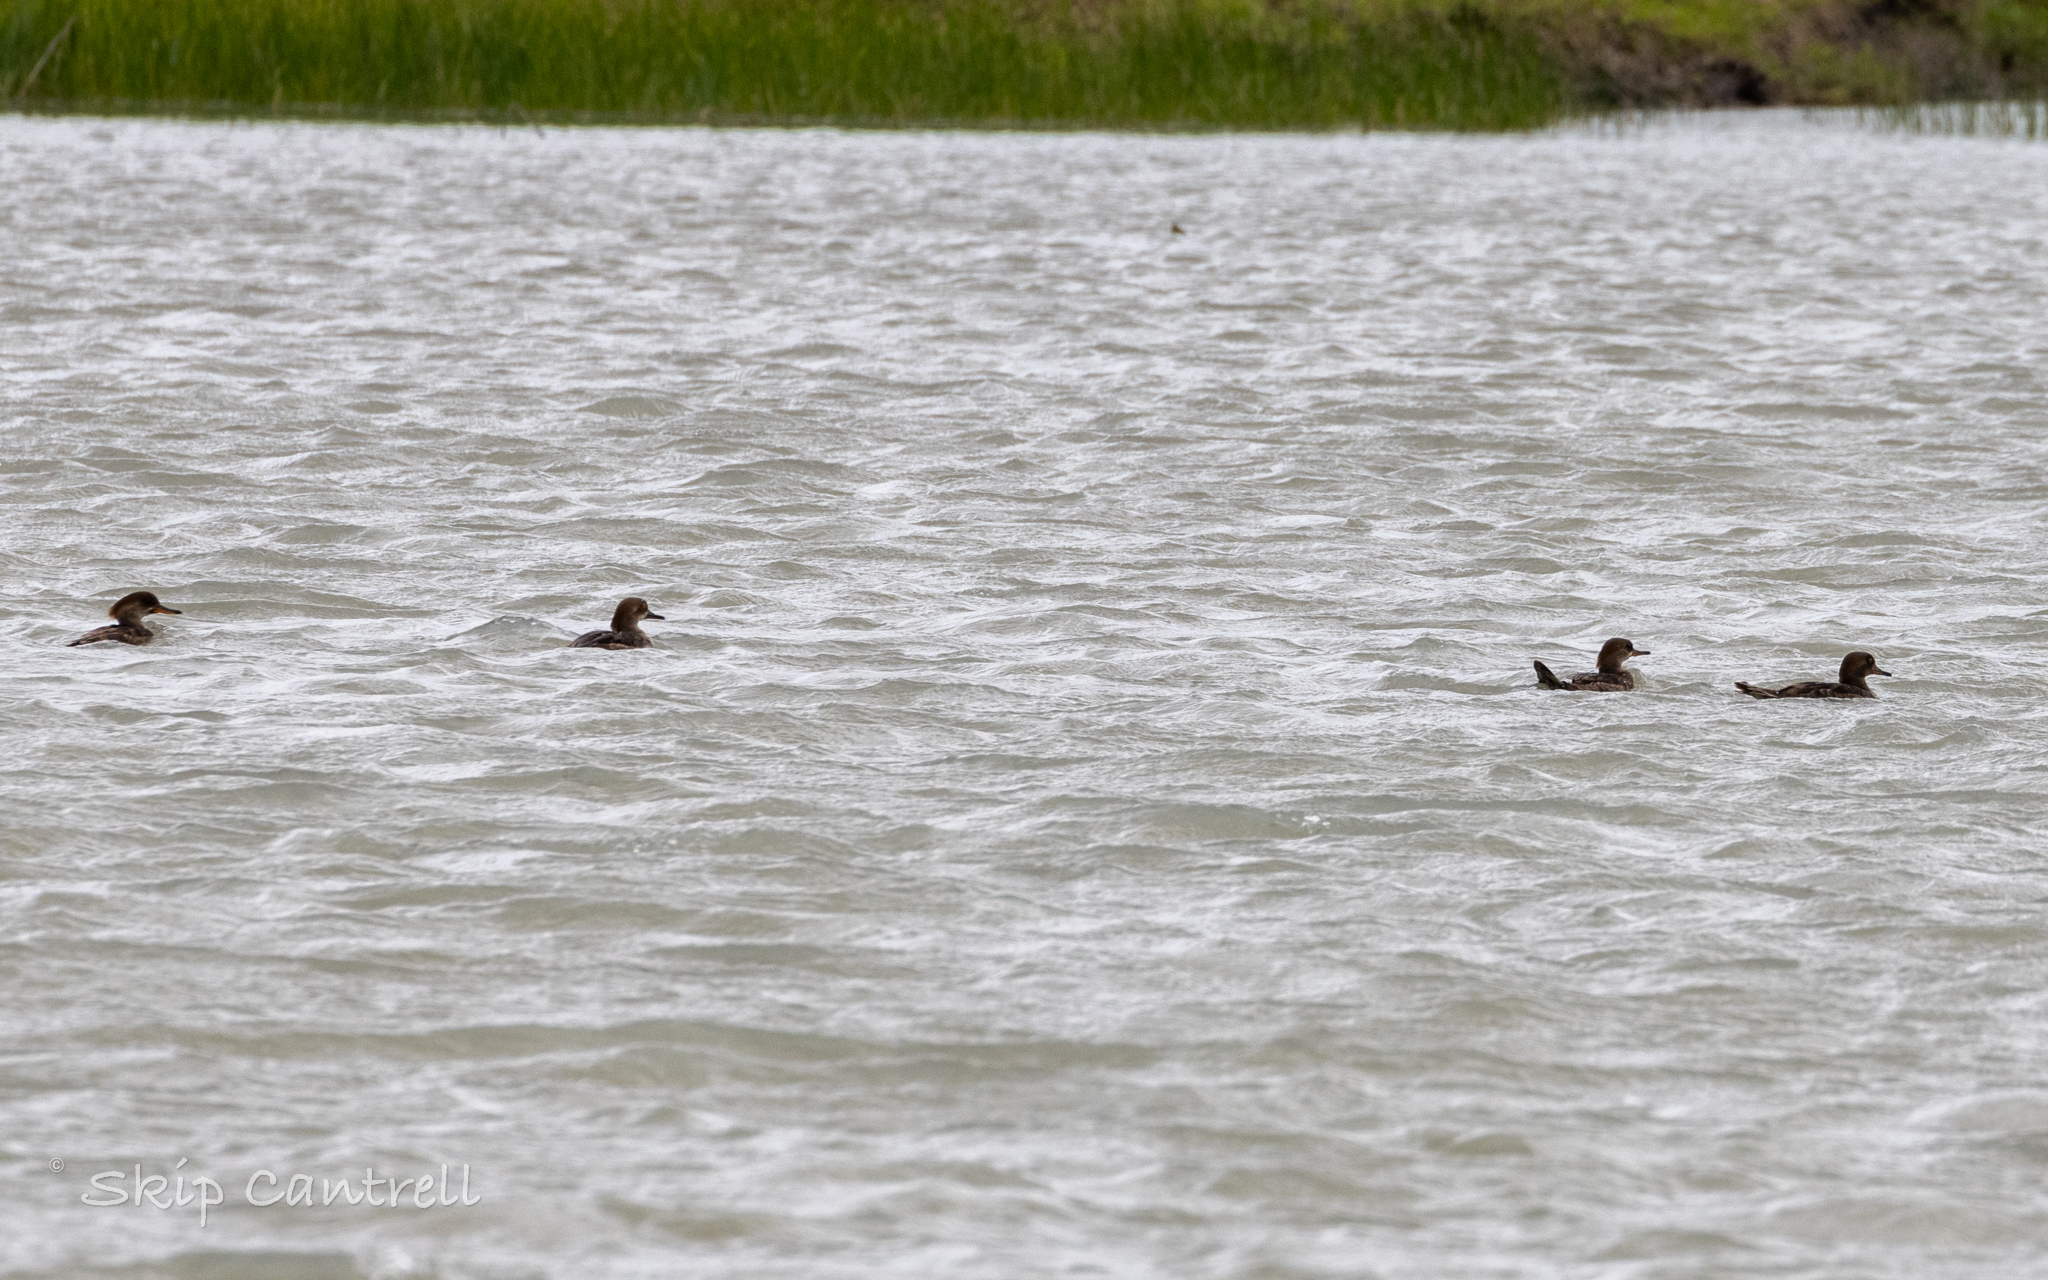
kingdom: Animalia
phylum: Chordata
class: Aves
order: Anseriformes
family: Anatidae
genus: Lophodytes
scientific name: Lophodytes cucullatus
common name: Hooded merganser
